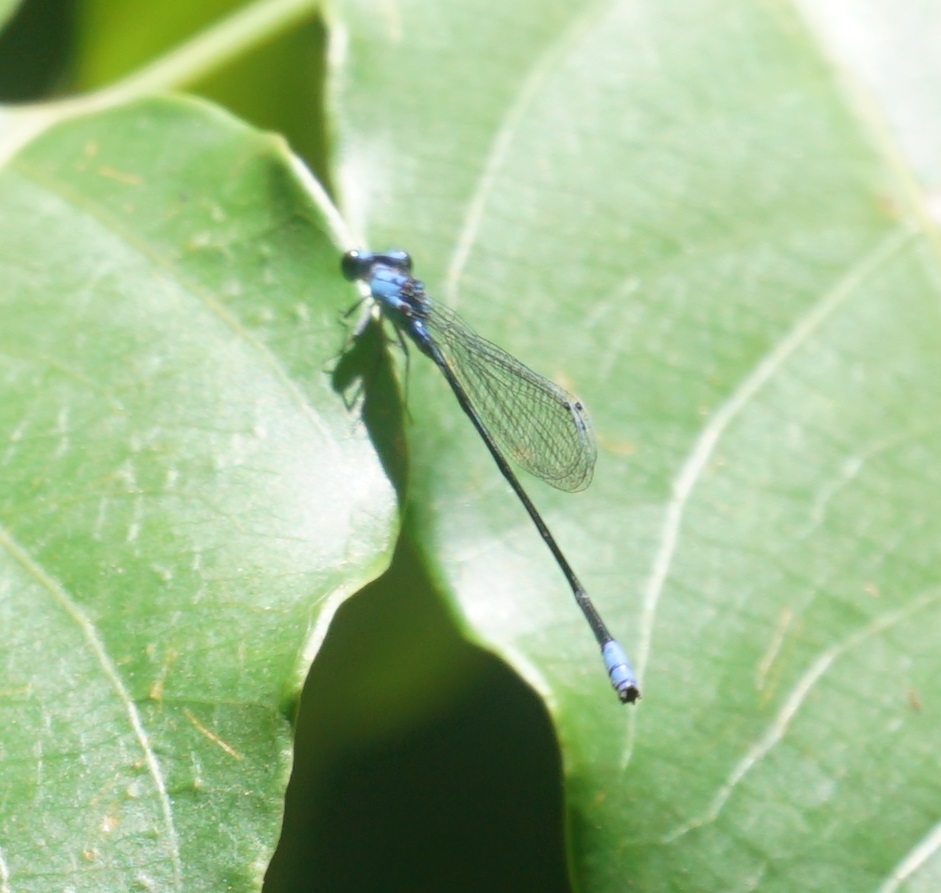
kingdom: Animalia
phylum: Arthropoda
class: Insecta
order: Odonata
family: Coenagrionidae
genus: Archibasis
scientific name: Archibasis mimetes
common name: Blue-banded longtail
